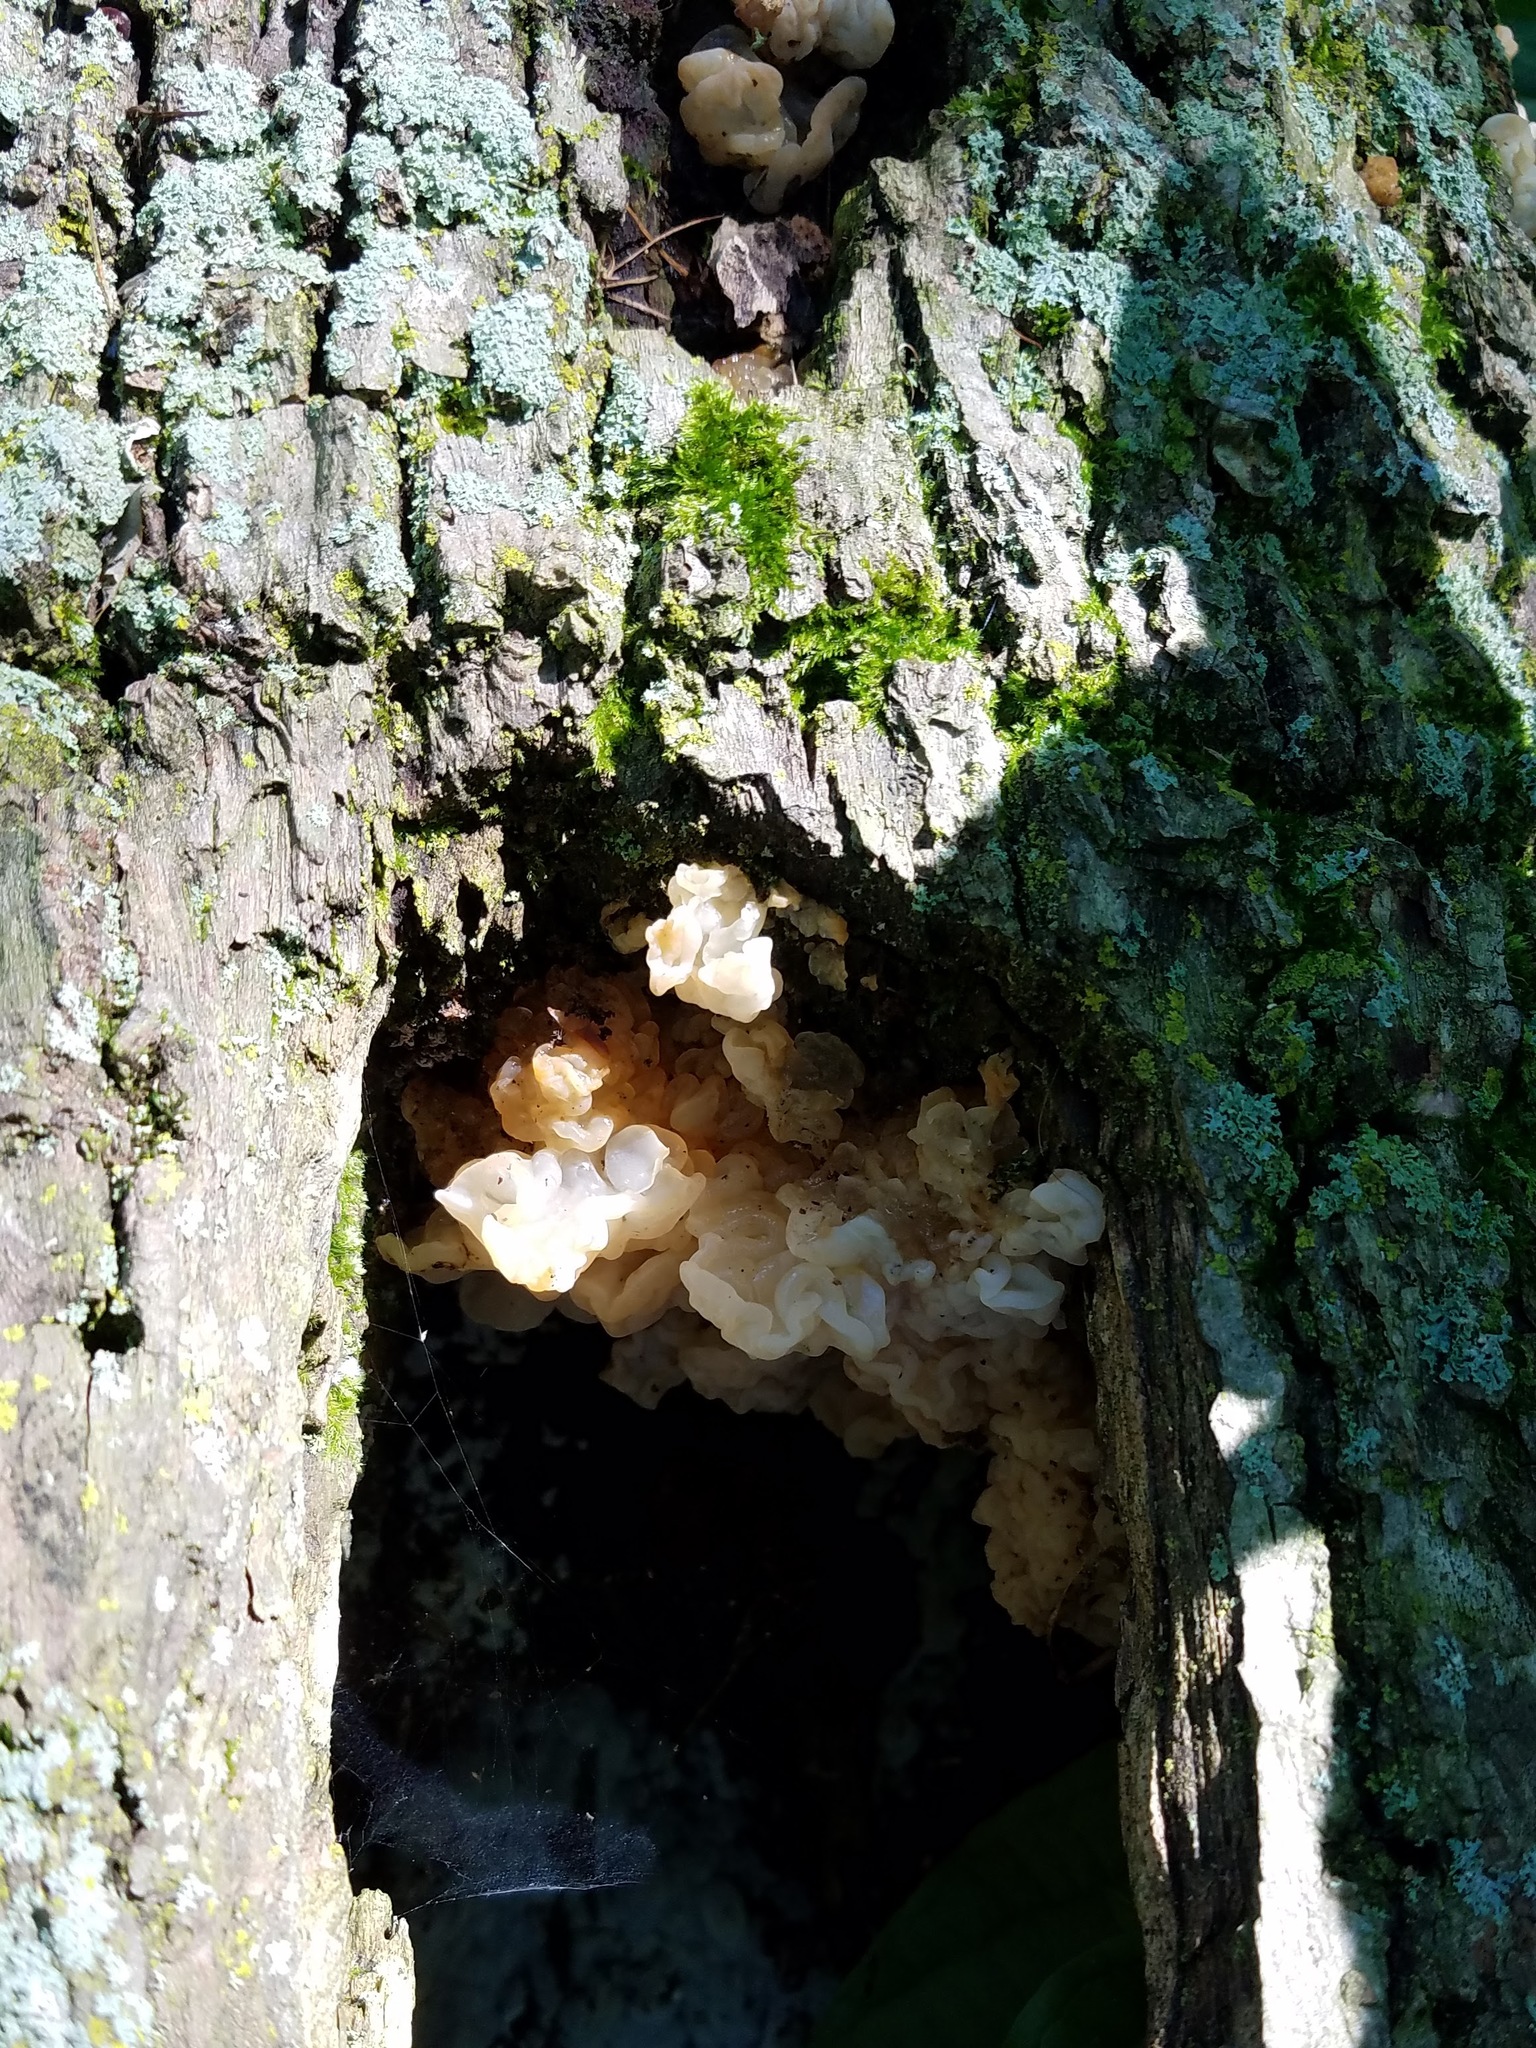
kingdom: Fungi
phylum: Basidiomycota
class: Agaricomycetes
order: Auriculariales
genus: Ductifera
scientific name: Ductifera pululahuana
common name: White jelly fungus
